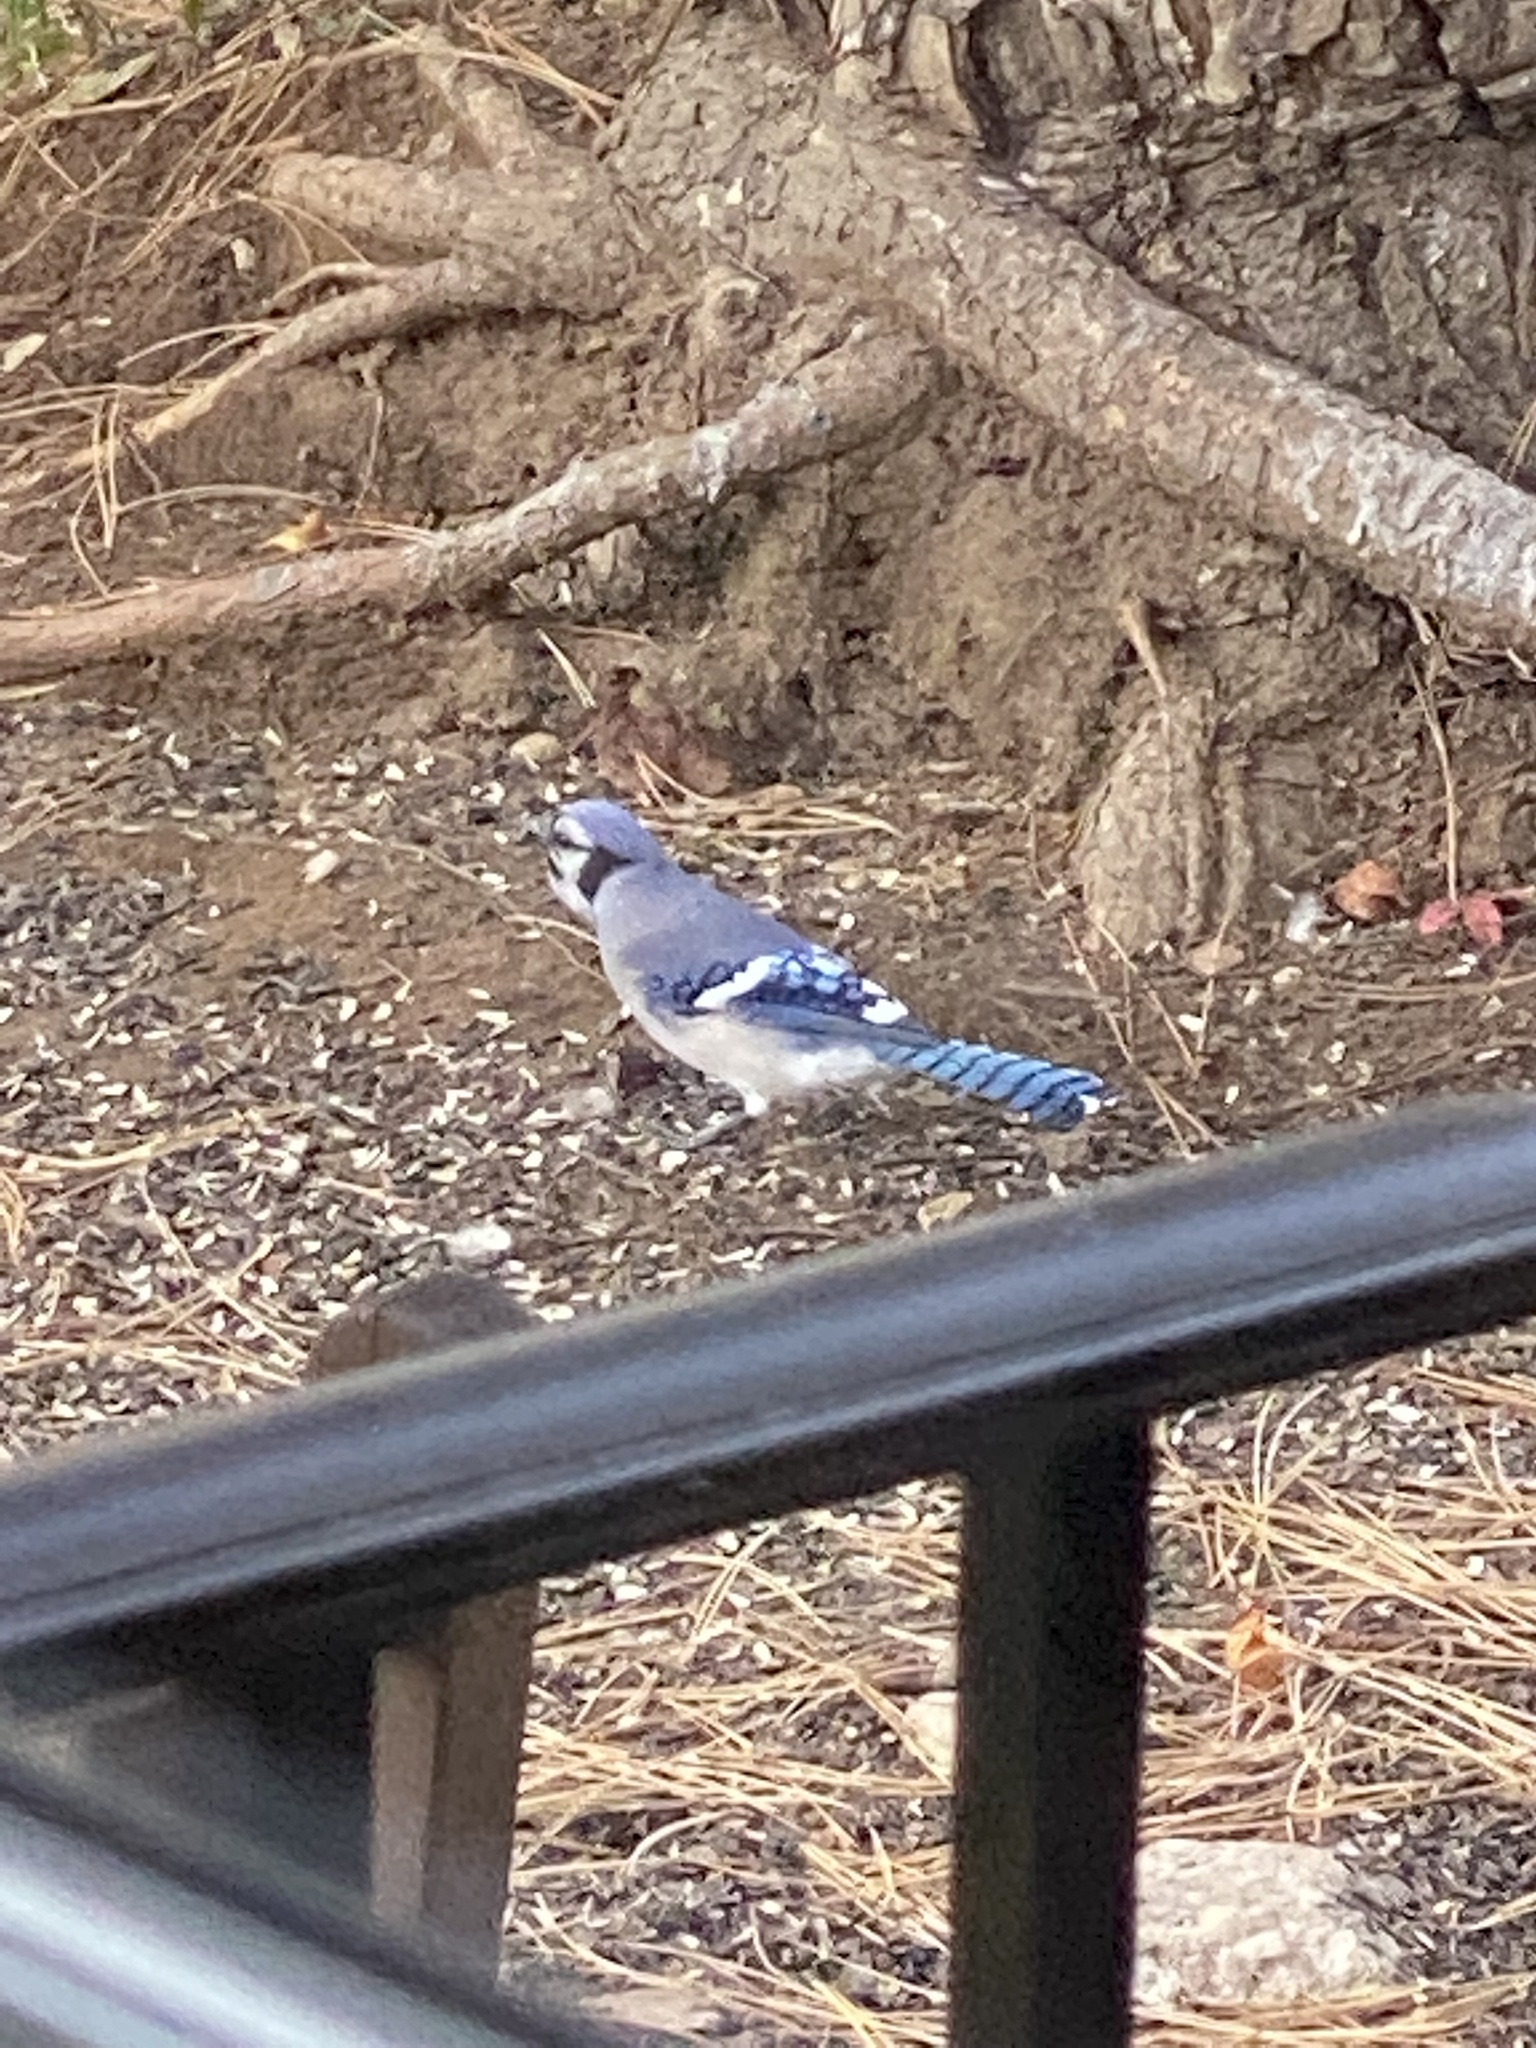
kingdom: Animalia
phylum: Chordata
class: Aves
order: Passeriformes
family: Corvidae
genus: Cyanocitta
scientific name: Cyanocitta cristata
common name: Blue jay
